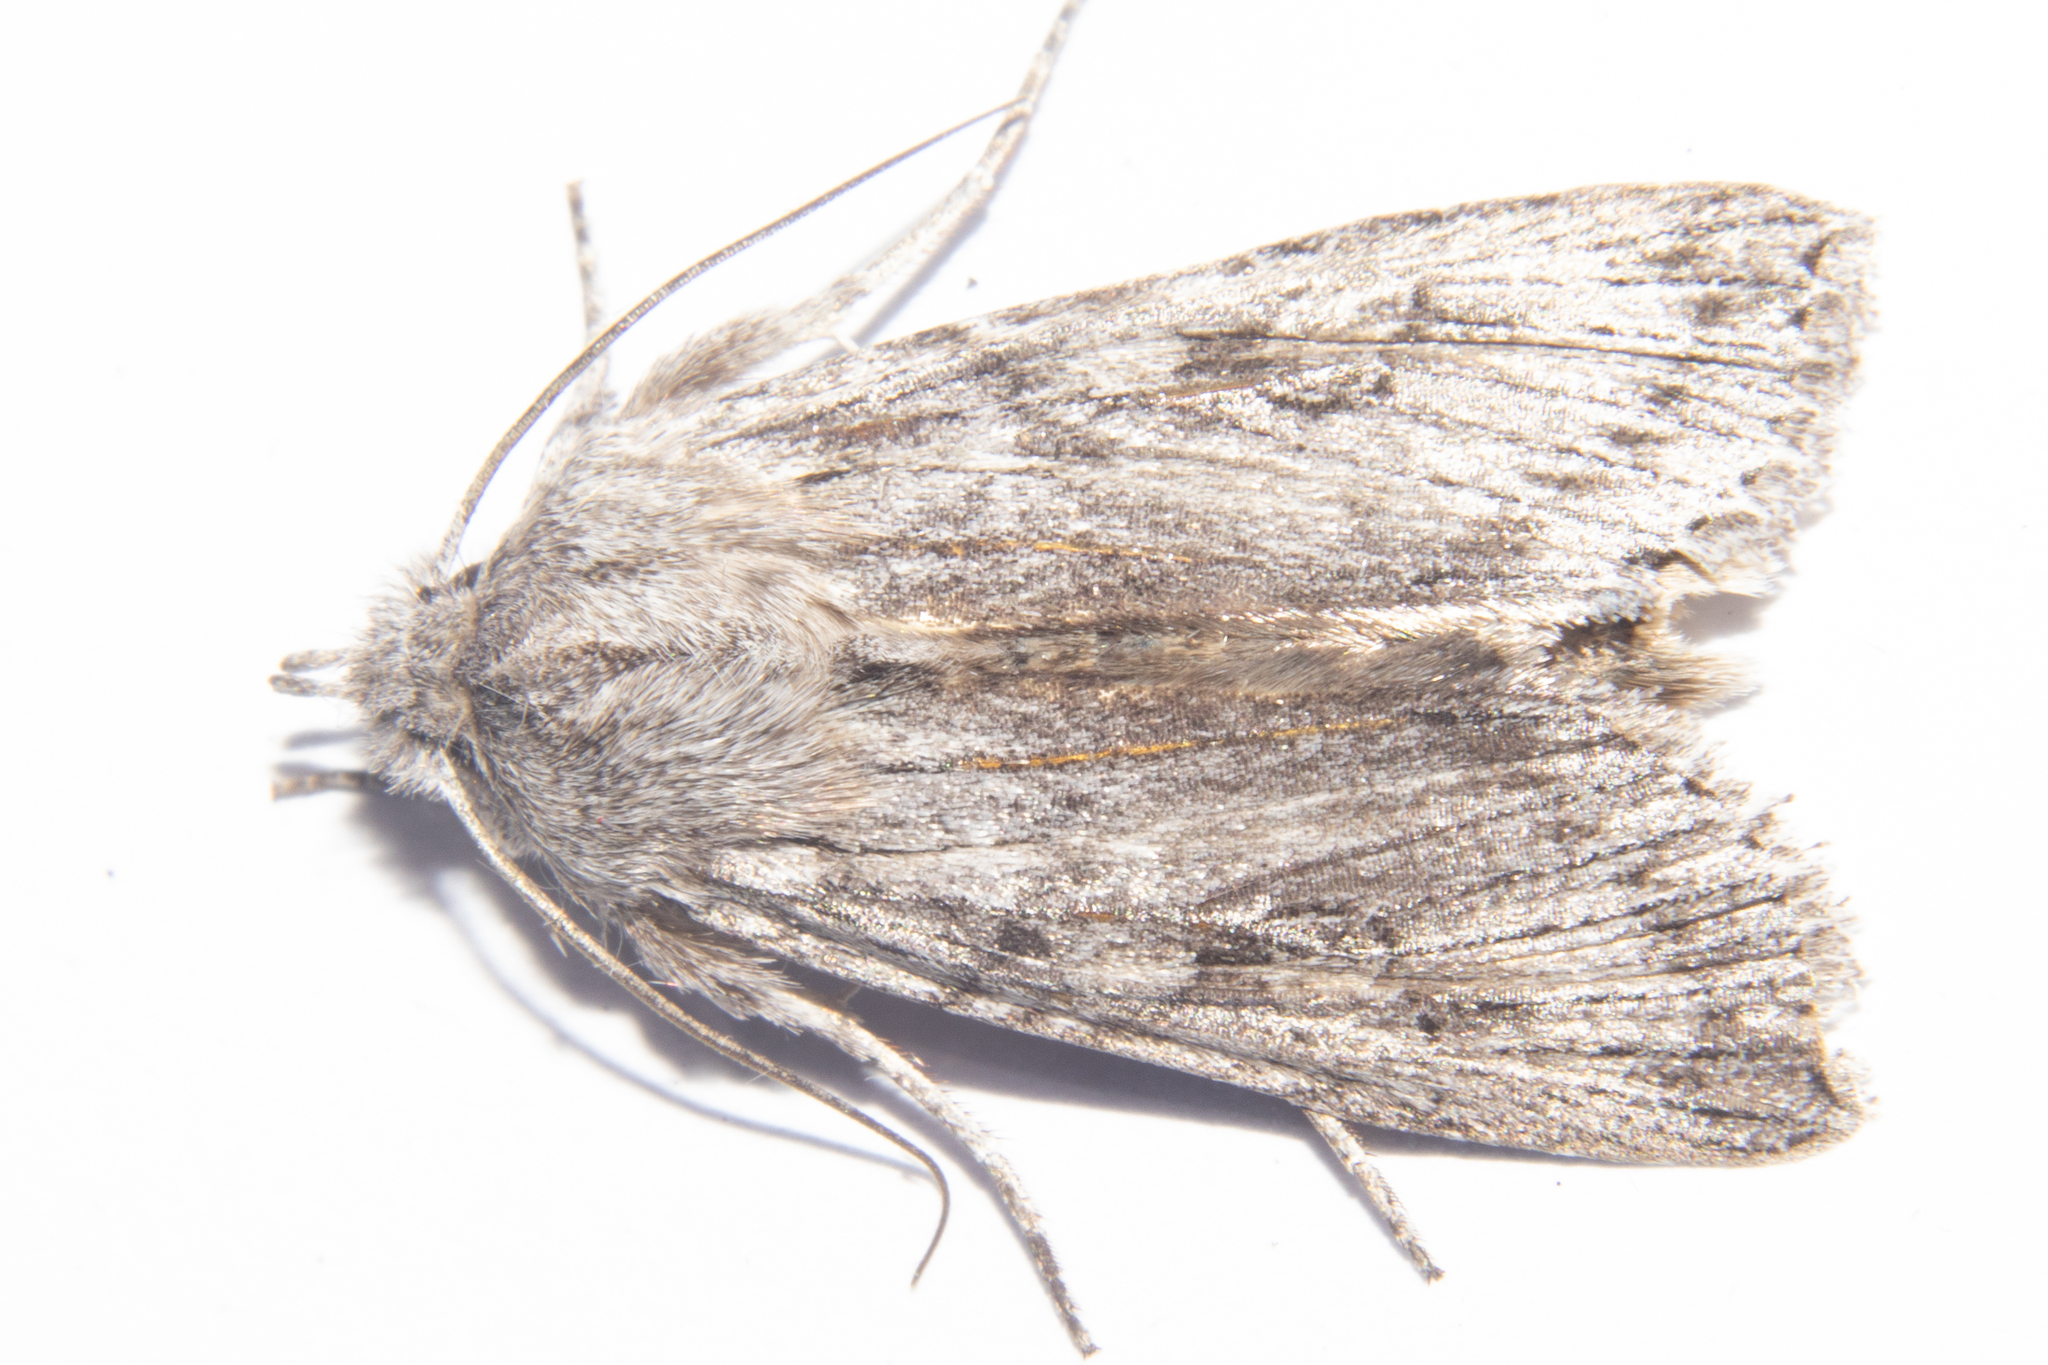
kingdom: Animalia
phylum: Arthropoda
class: Insecta
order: Lepidoptera
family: Noctuidae
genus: Physetica
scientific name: Physetica phricias
